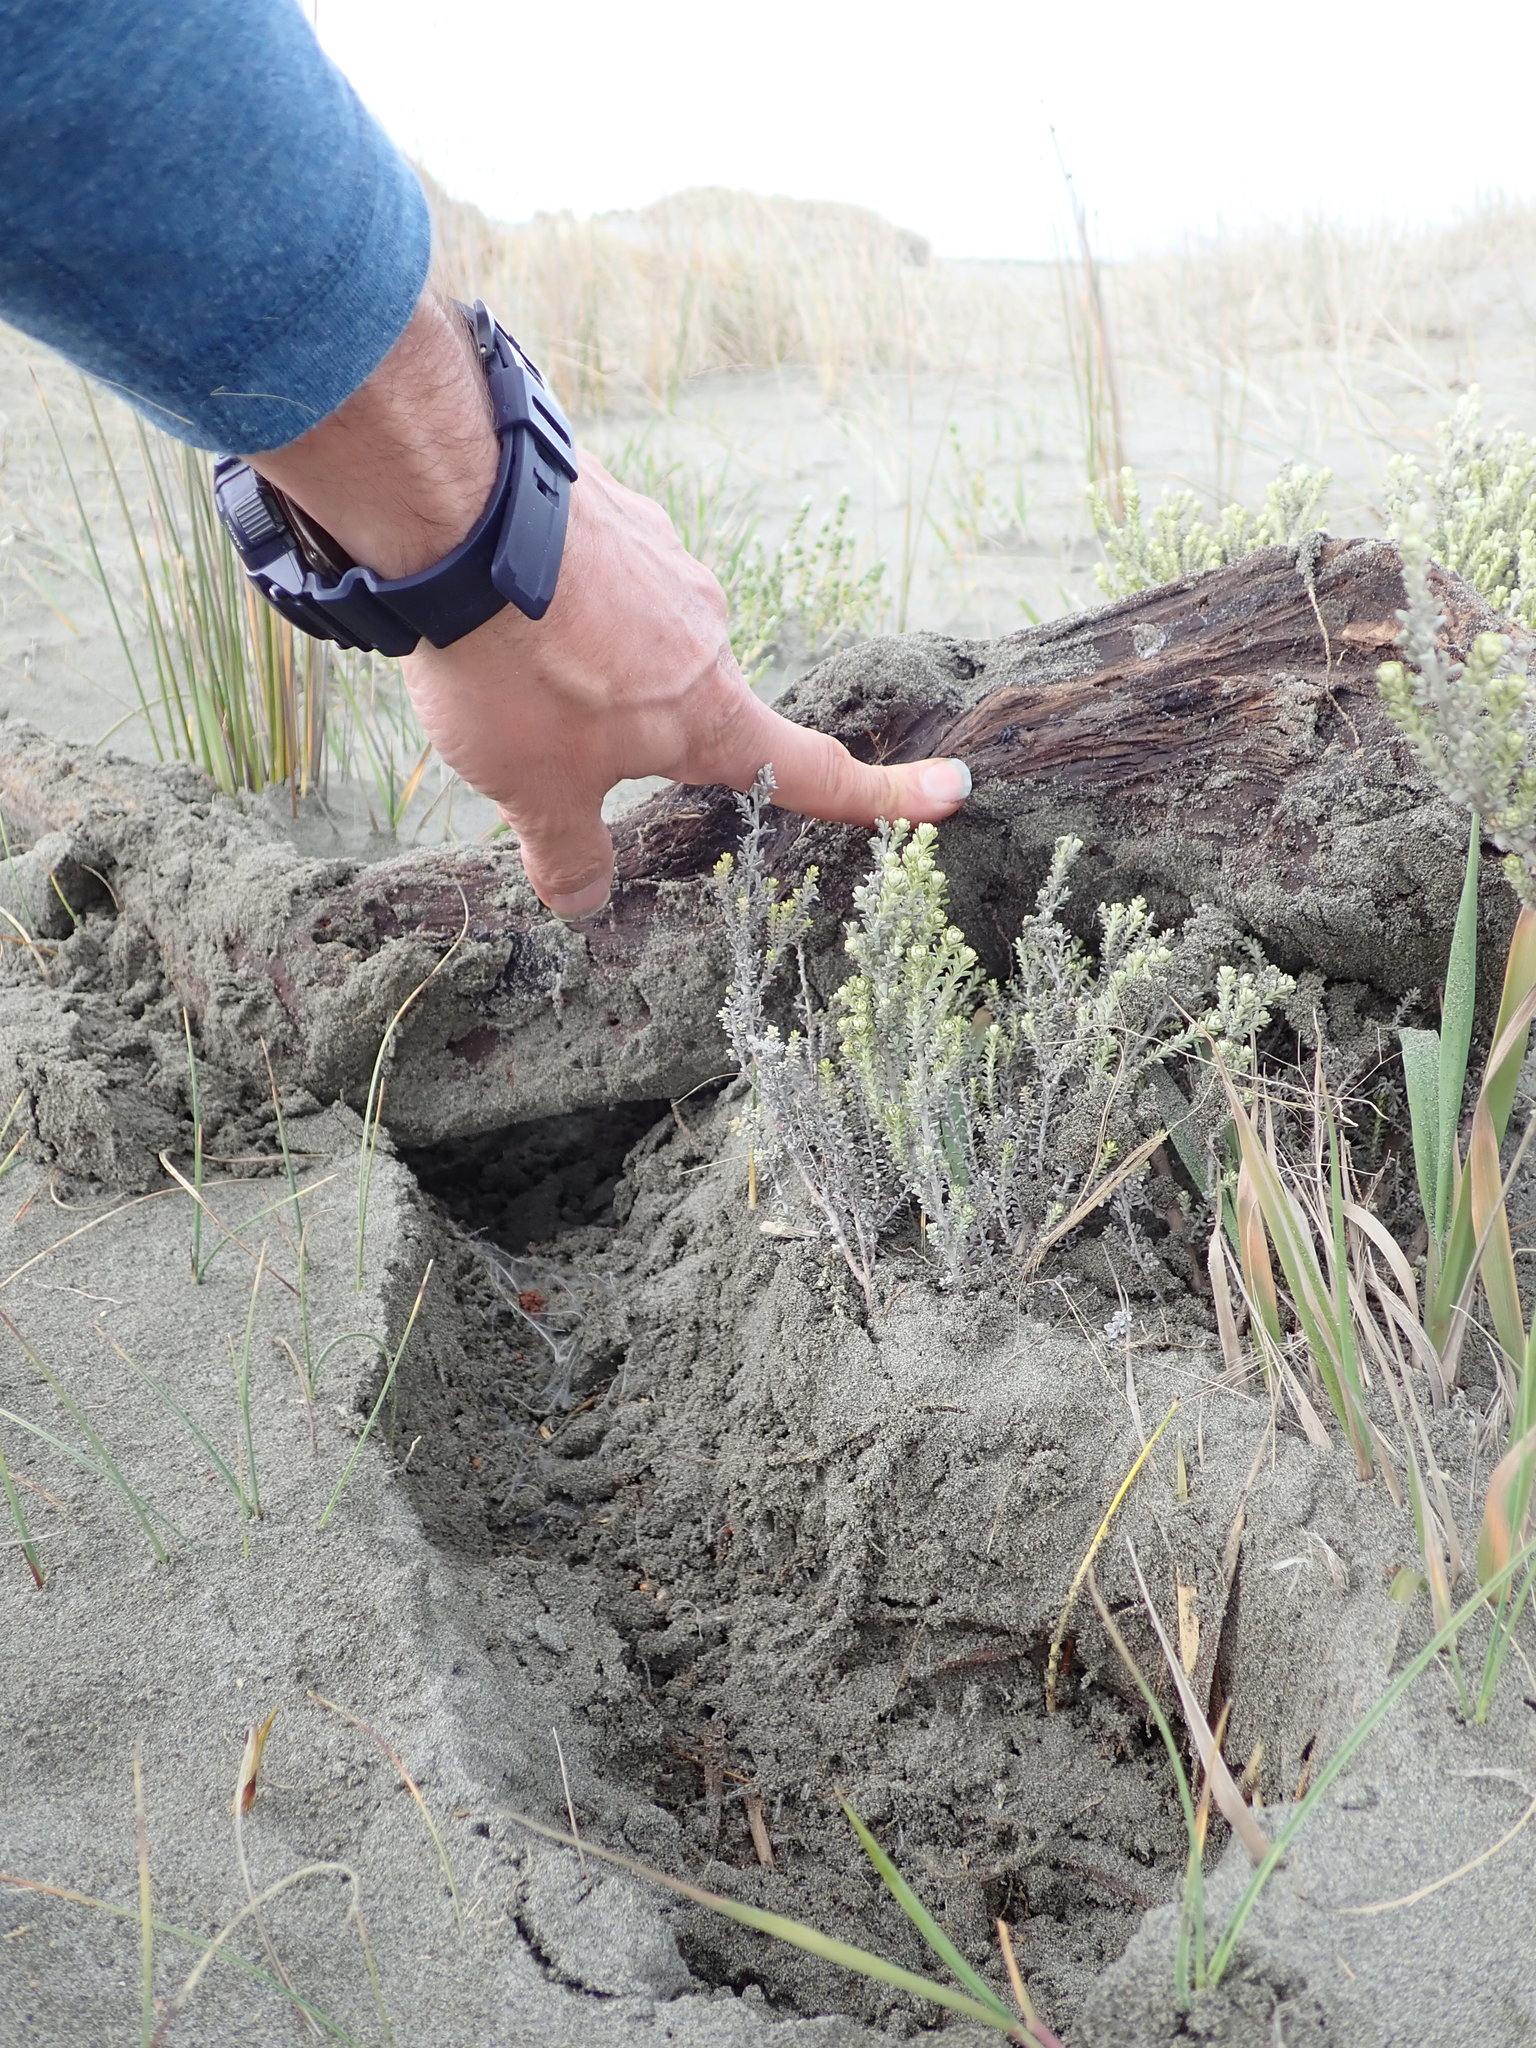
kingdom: Animalia
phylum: Arthropoda
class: Arachnida
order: Araneae
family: Theridiidae
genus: Steatoda
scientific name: Steatoda capensis
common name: Cobweb weaver
